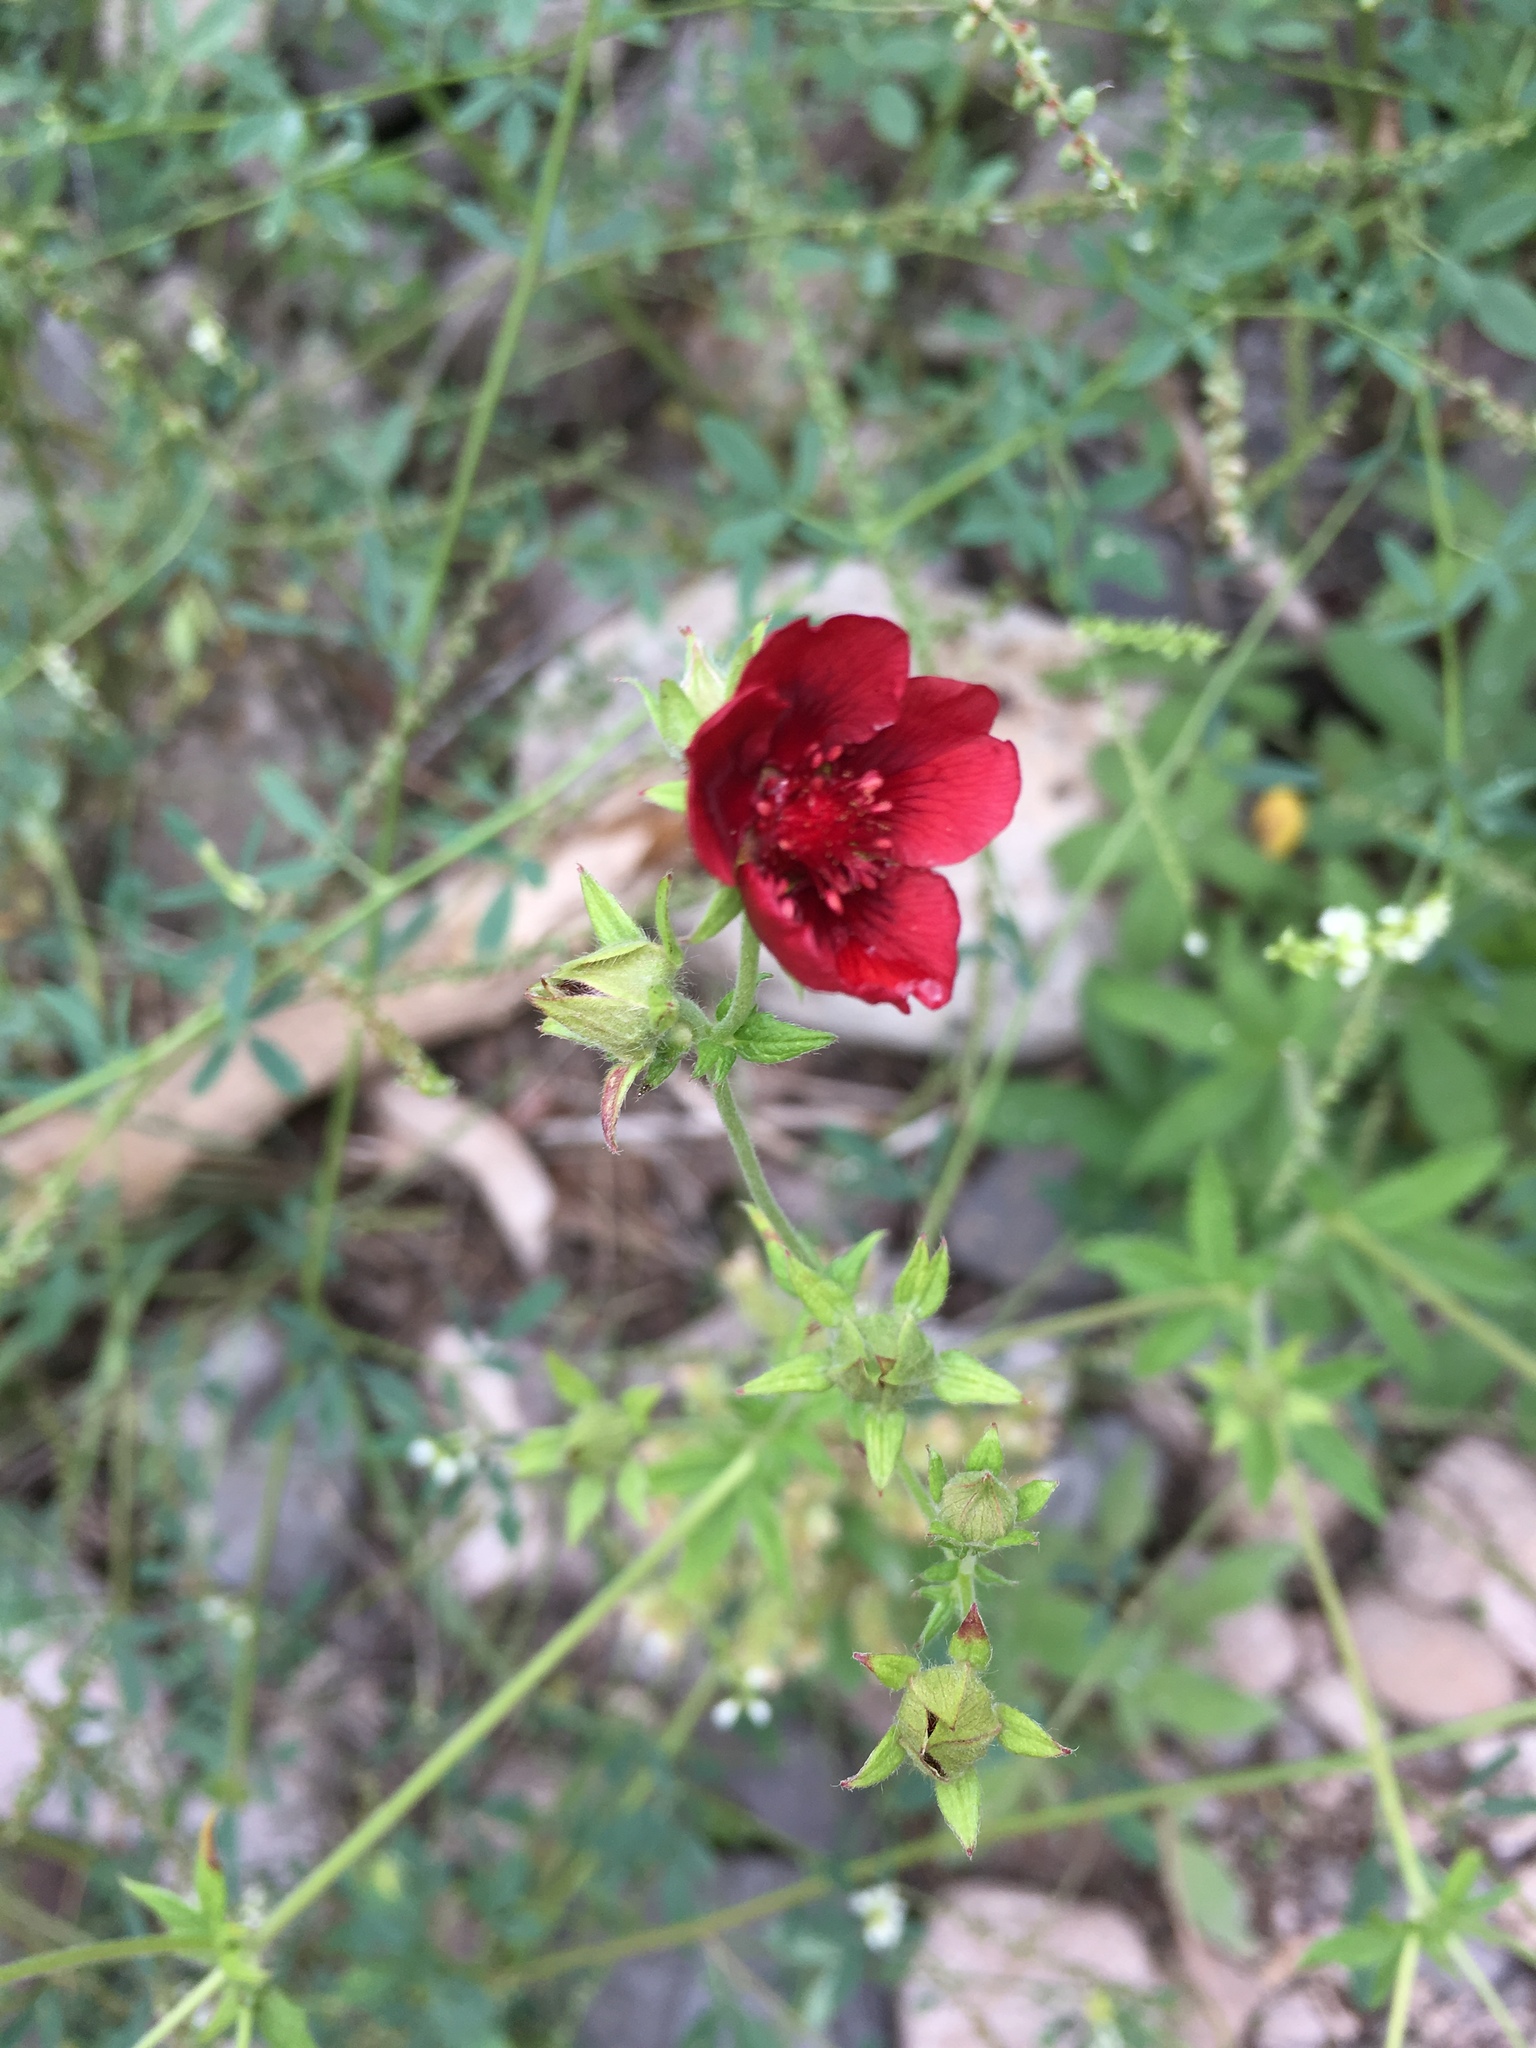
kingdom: Plantae
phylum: Tracheophyta
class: Magnoliopsida
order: Rosales
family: Rosaceae
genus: Potentilla
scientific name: Potentilla thurberi
